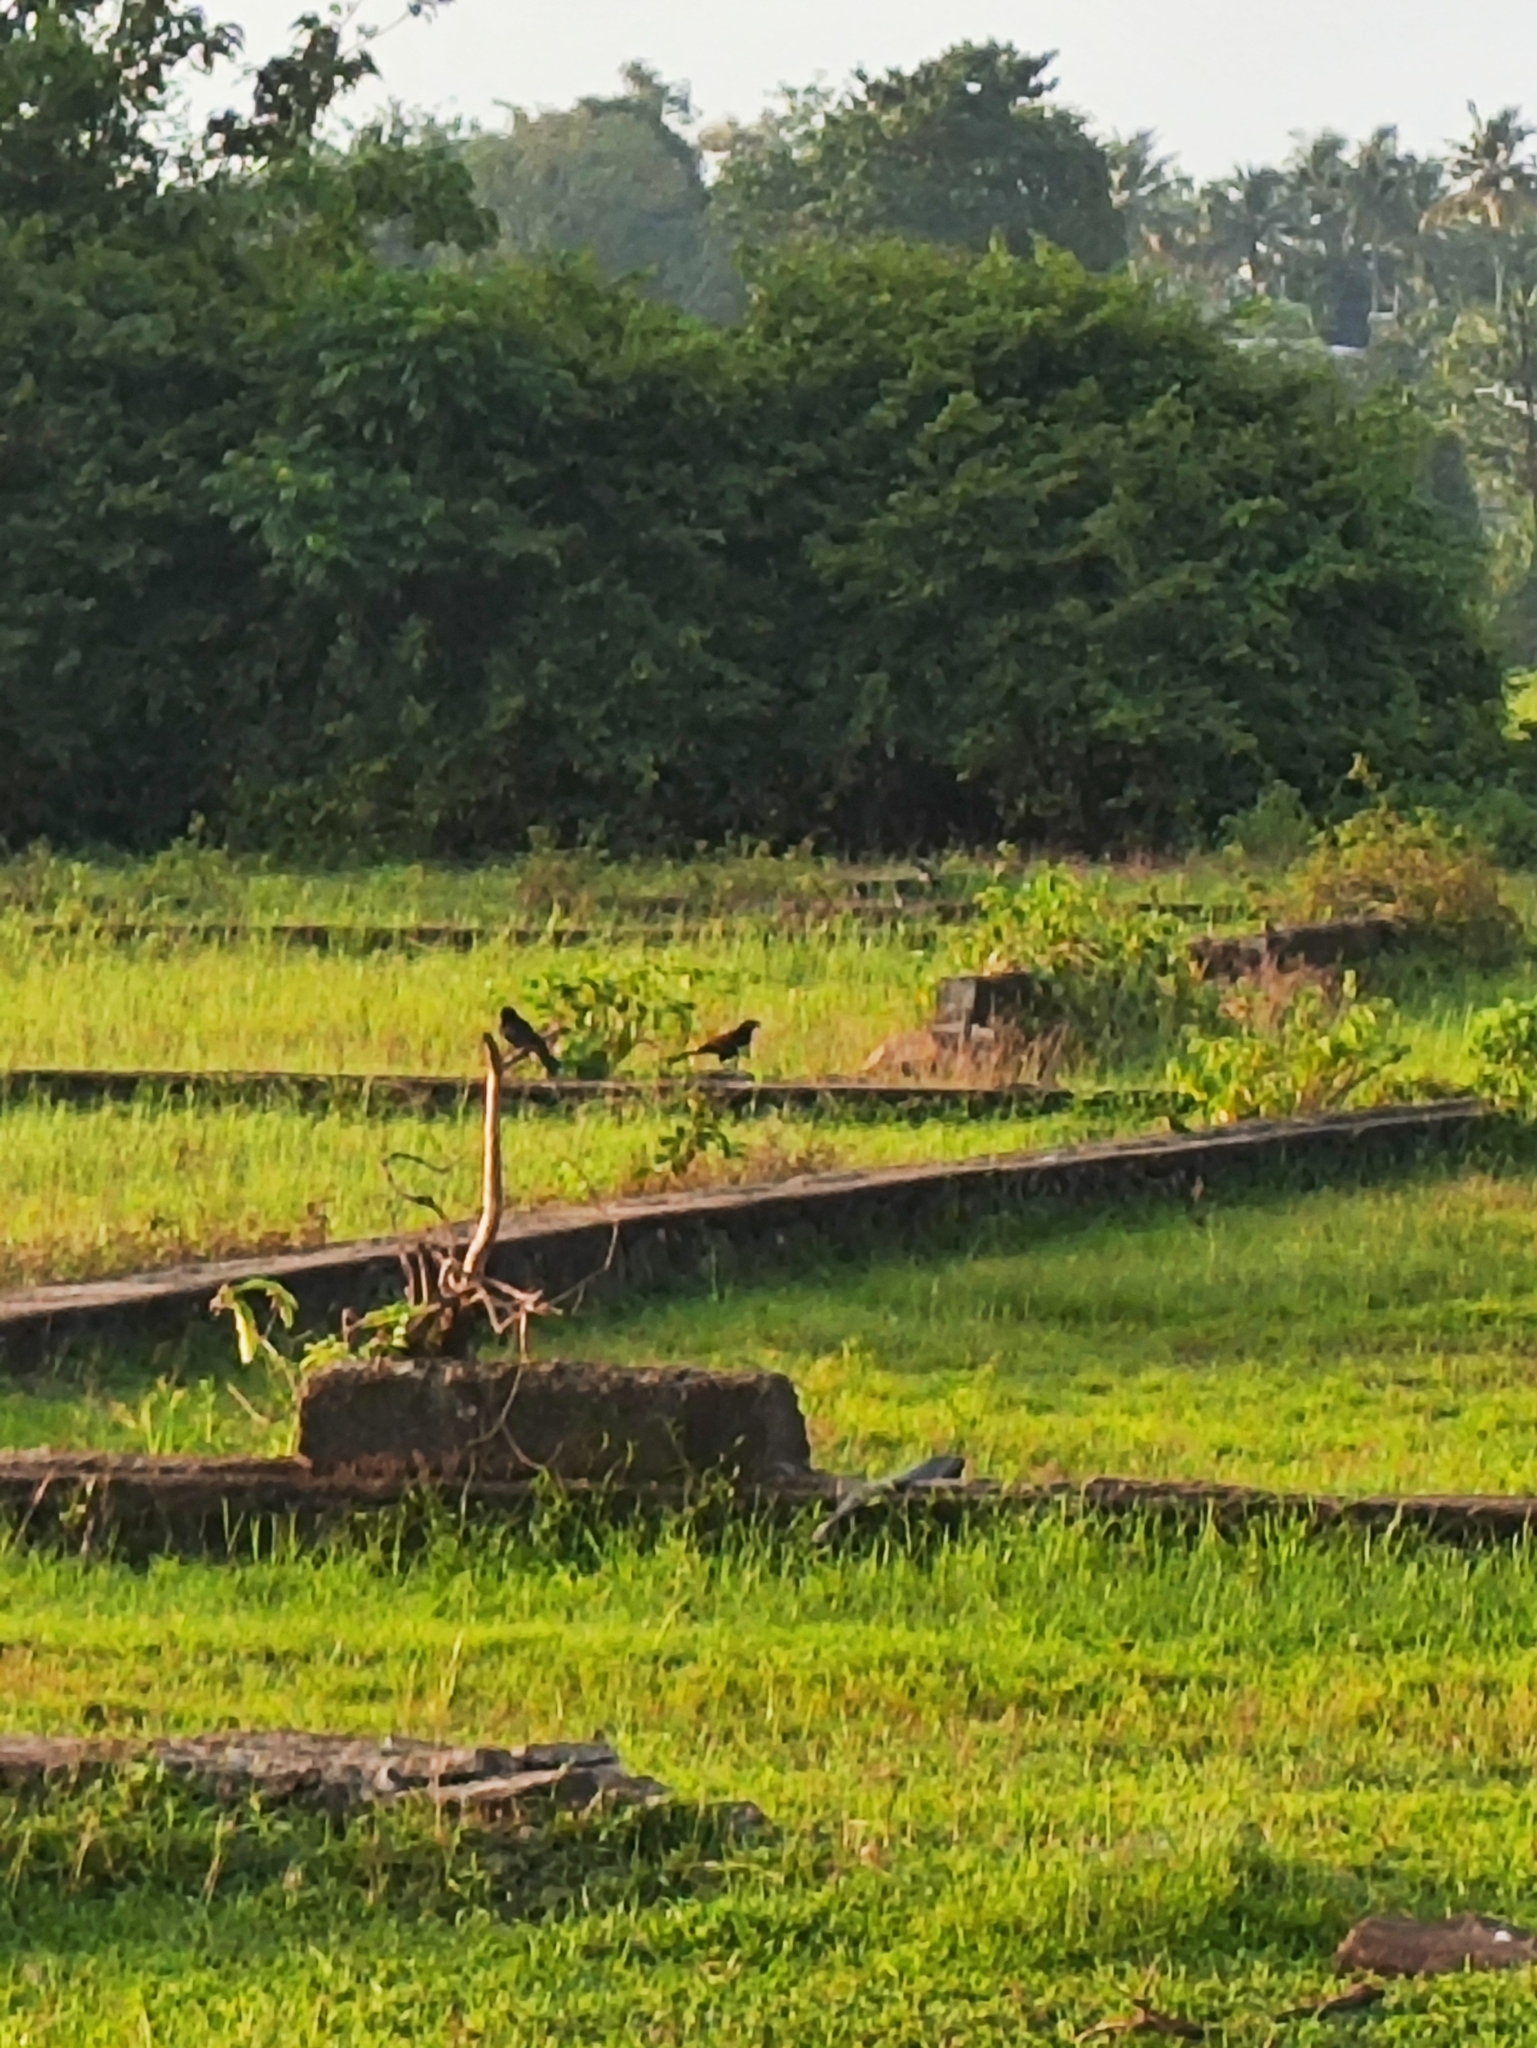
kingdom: Animalia
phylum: Chordata
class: Aves
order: Cuculiformes
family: Cuculidae
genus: Centropus
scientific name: Centropus sinensis
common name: Greater coucal
